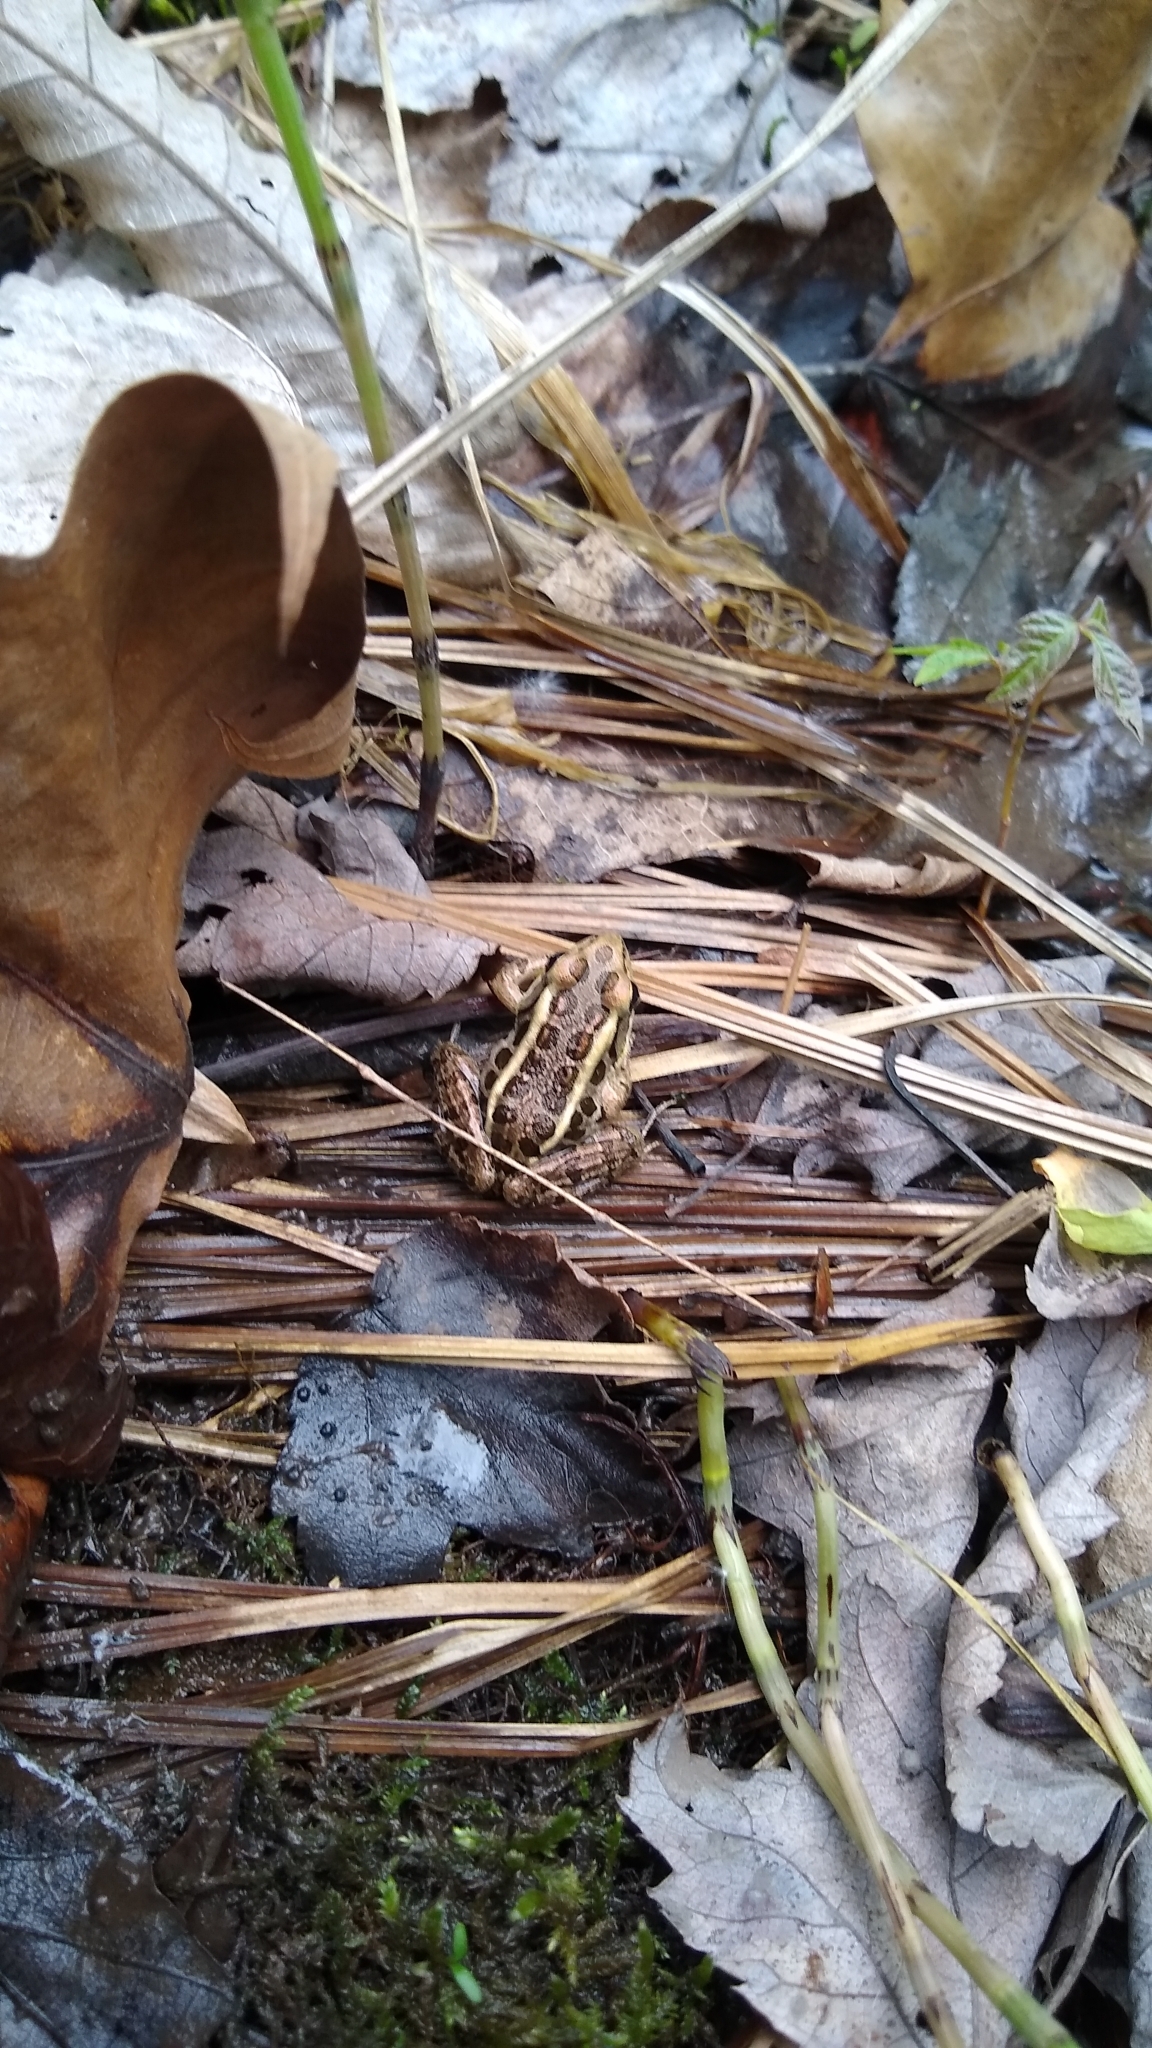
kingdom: Animalia
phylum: Chordata
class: Amphibia
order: Anura
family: Ranidae
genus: Lithobates
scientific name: Lithobates palustris
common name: Pickerel frog
